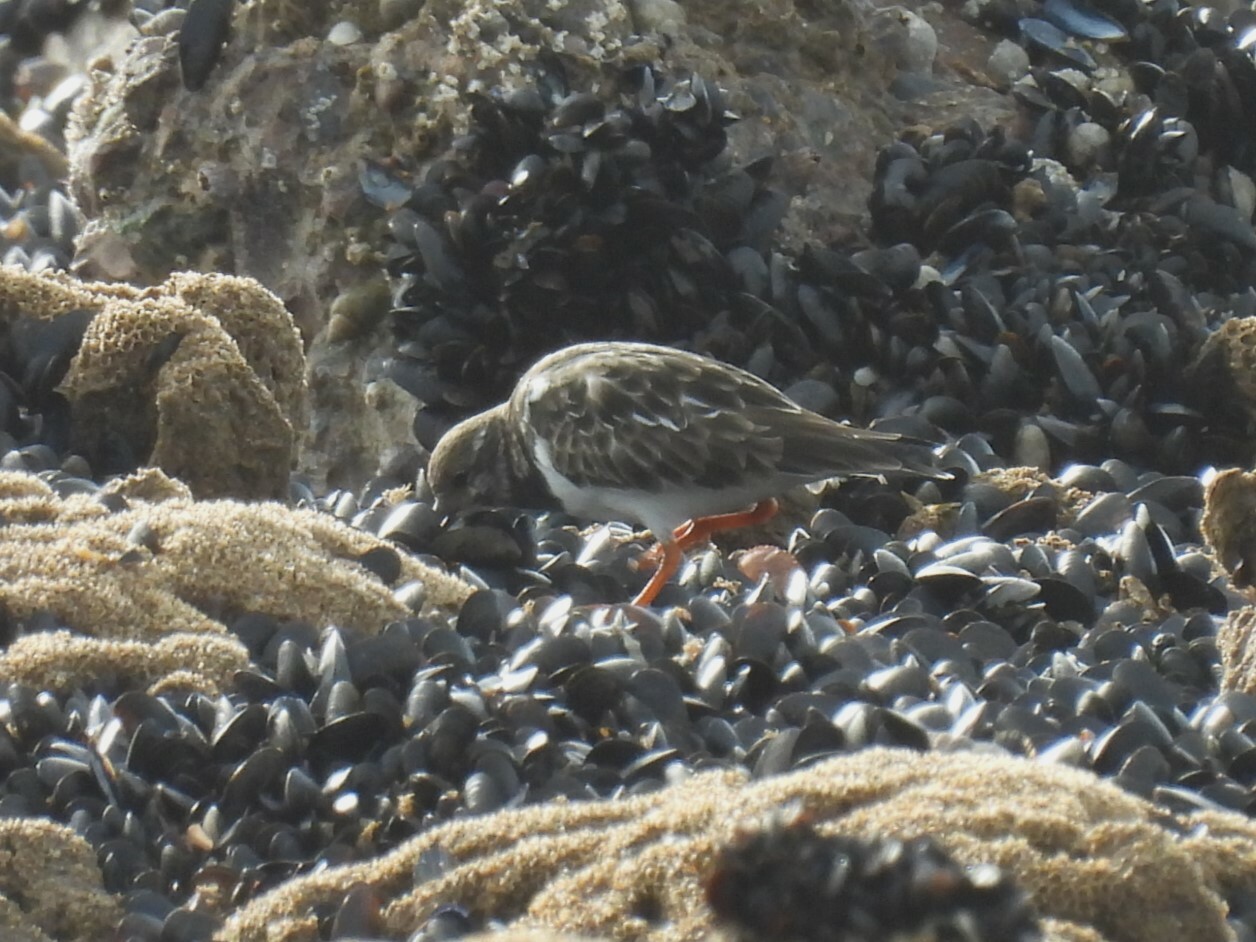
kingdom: Animalia
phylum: Chordata
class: Aves
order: Charadriiformes
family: Scolopacidae
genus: Arenaria
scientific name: Arenaria interpres
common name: Ruddy turnstone
